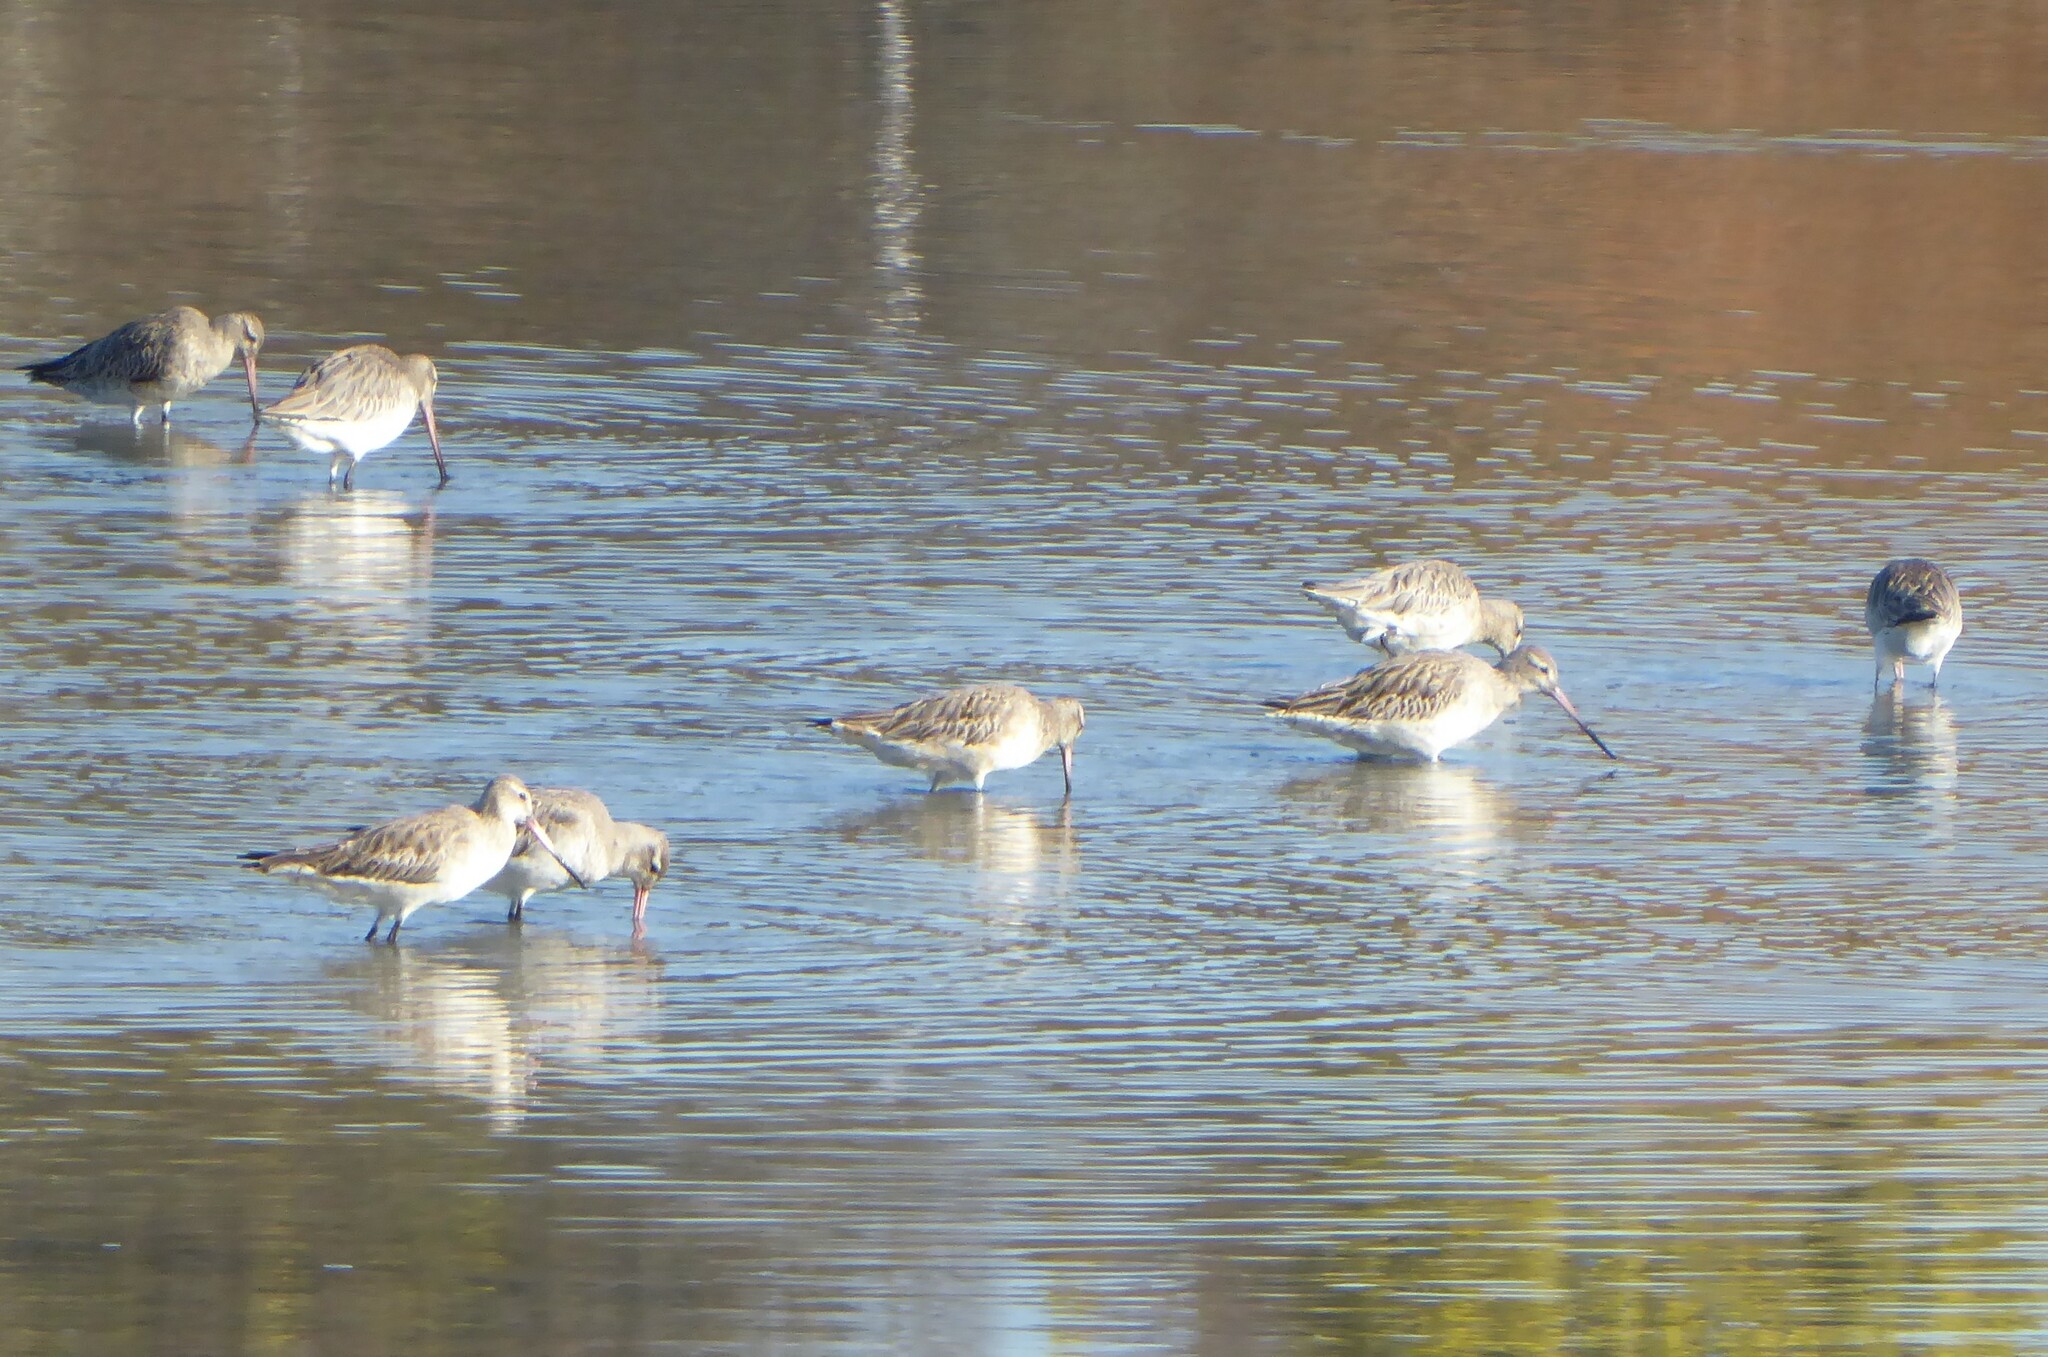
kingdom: Animalia
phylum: Chordata
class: Aves
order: Charadriiformes
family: Scolopacidae
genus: Limosa
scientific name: Limosa lapponica
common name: Bar-tailed godwit
